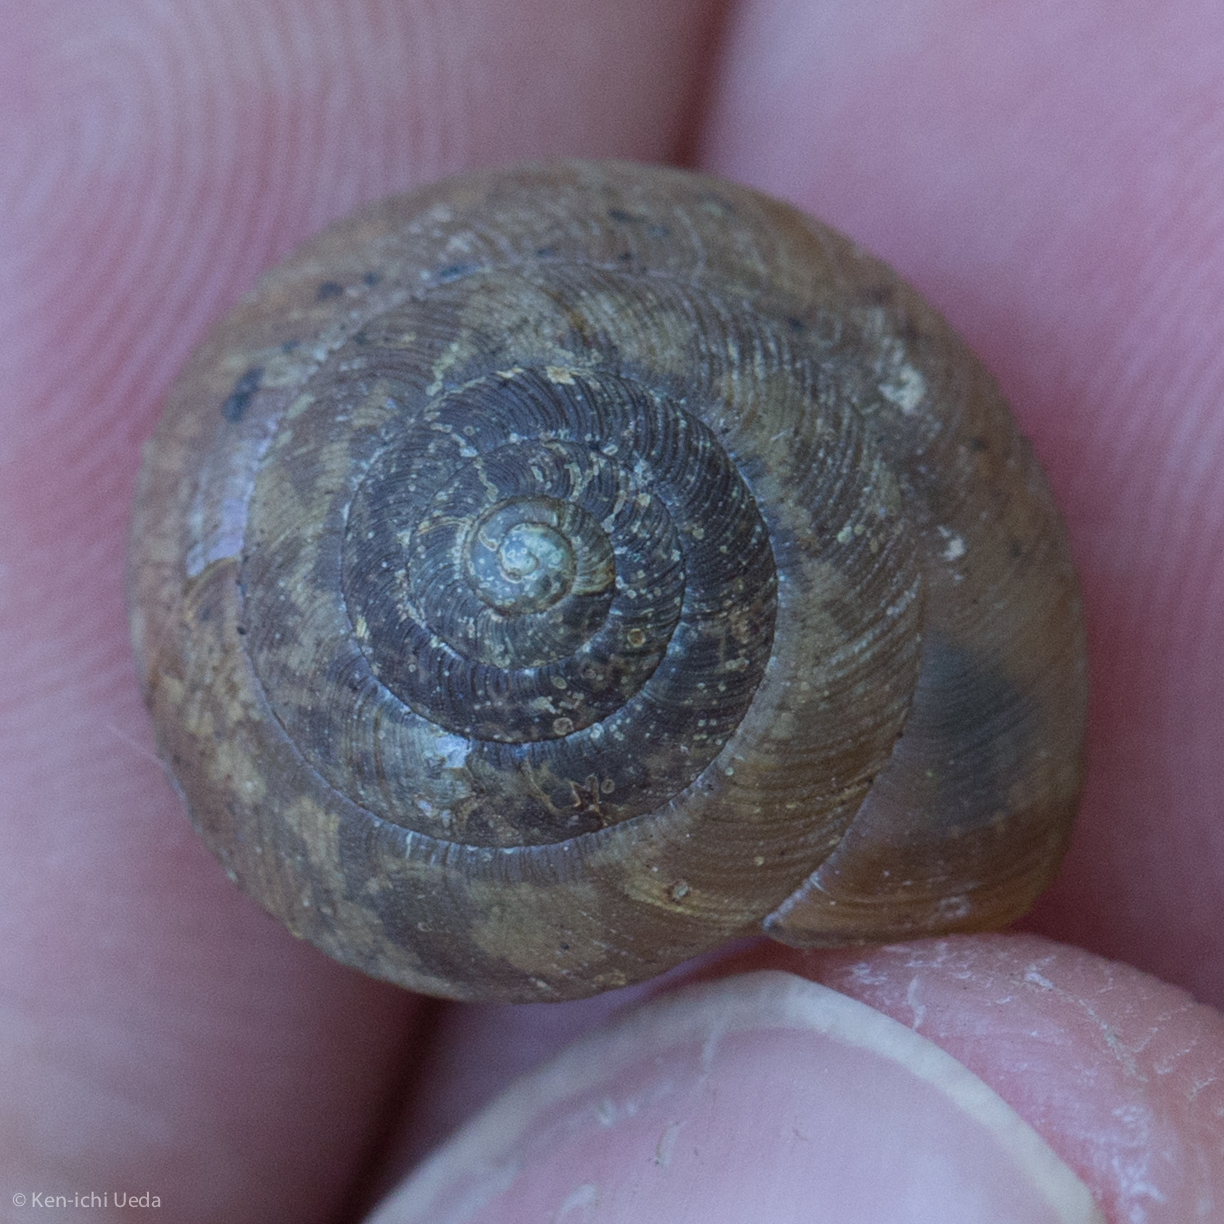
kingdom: Animalia
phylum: Mollusca
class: Gastropoda
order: Stylommatophora
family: Gastrodontidae
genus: Ventridens
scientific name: Ventridens intertextus
